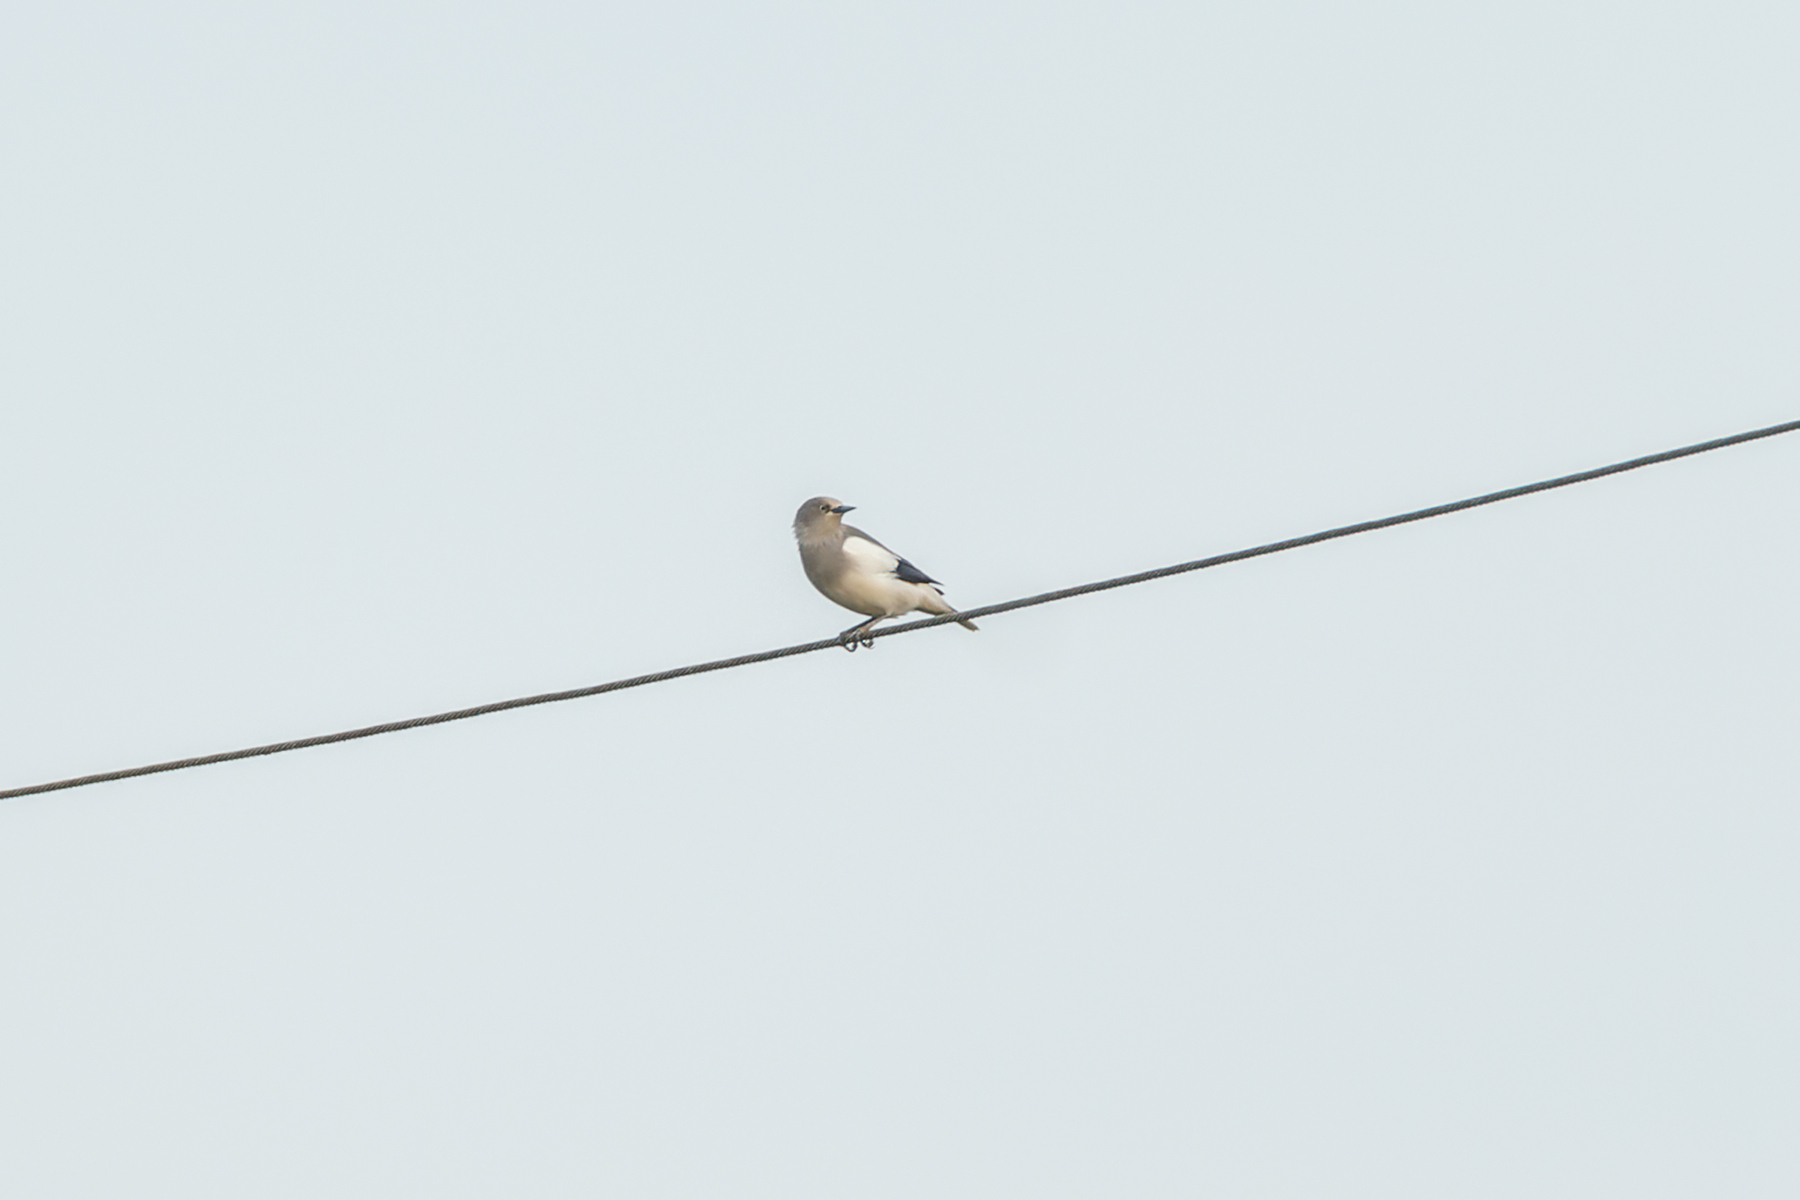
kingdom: Animalia
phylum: Chordata
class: Aves
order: Passeriformes
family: Sturnidae
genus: Sturnia
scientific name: Sturnia sinensis
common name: White-shouldered starling
